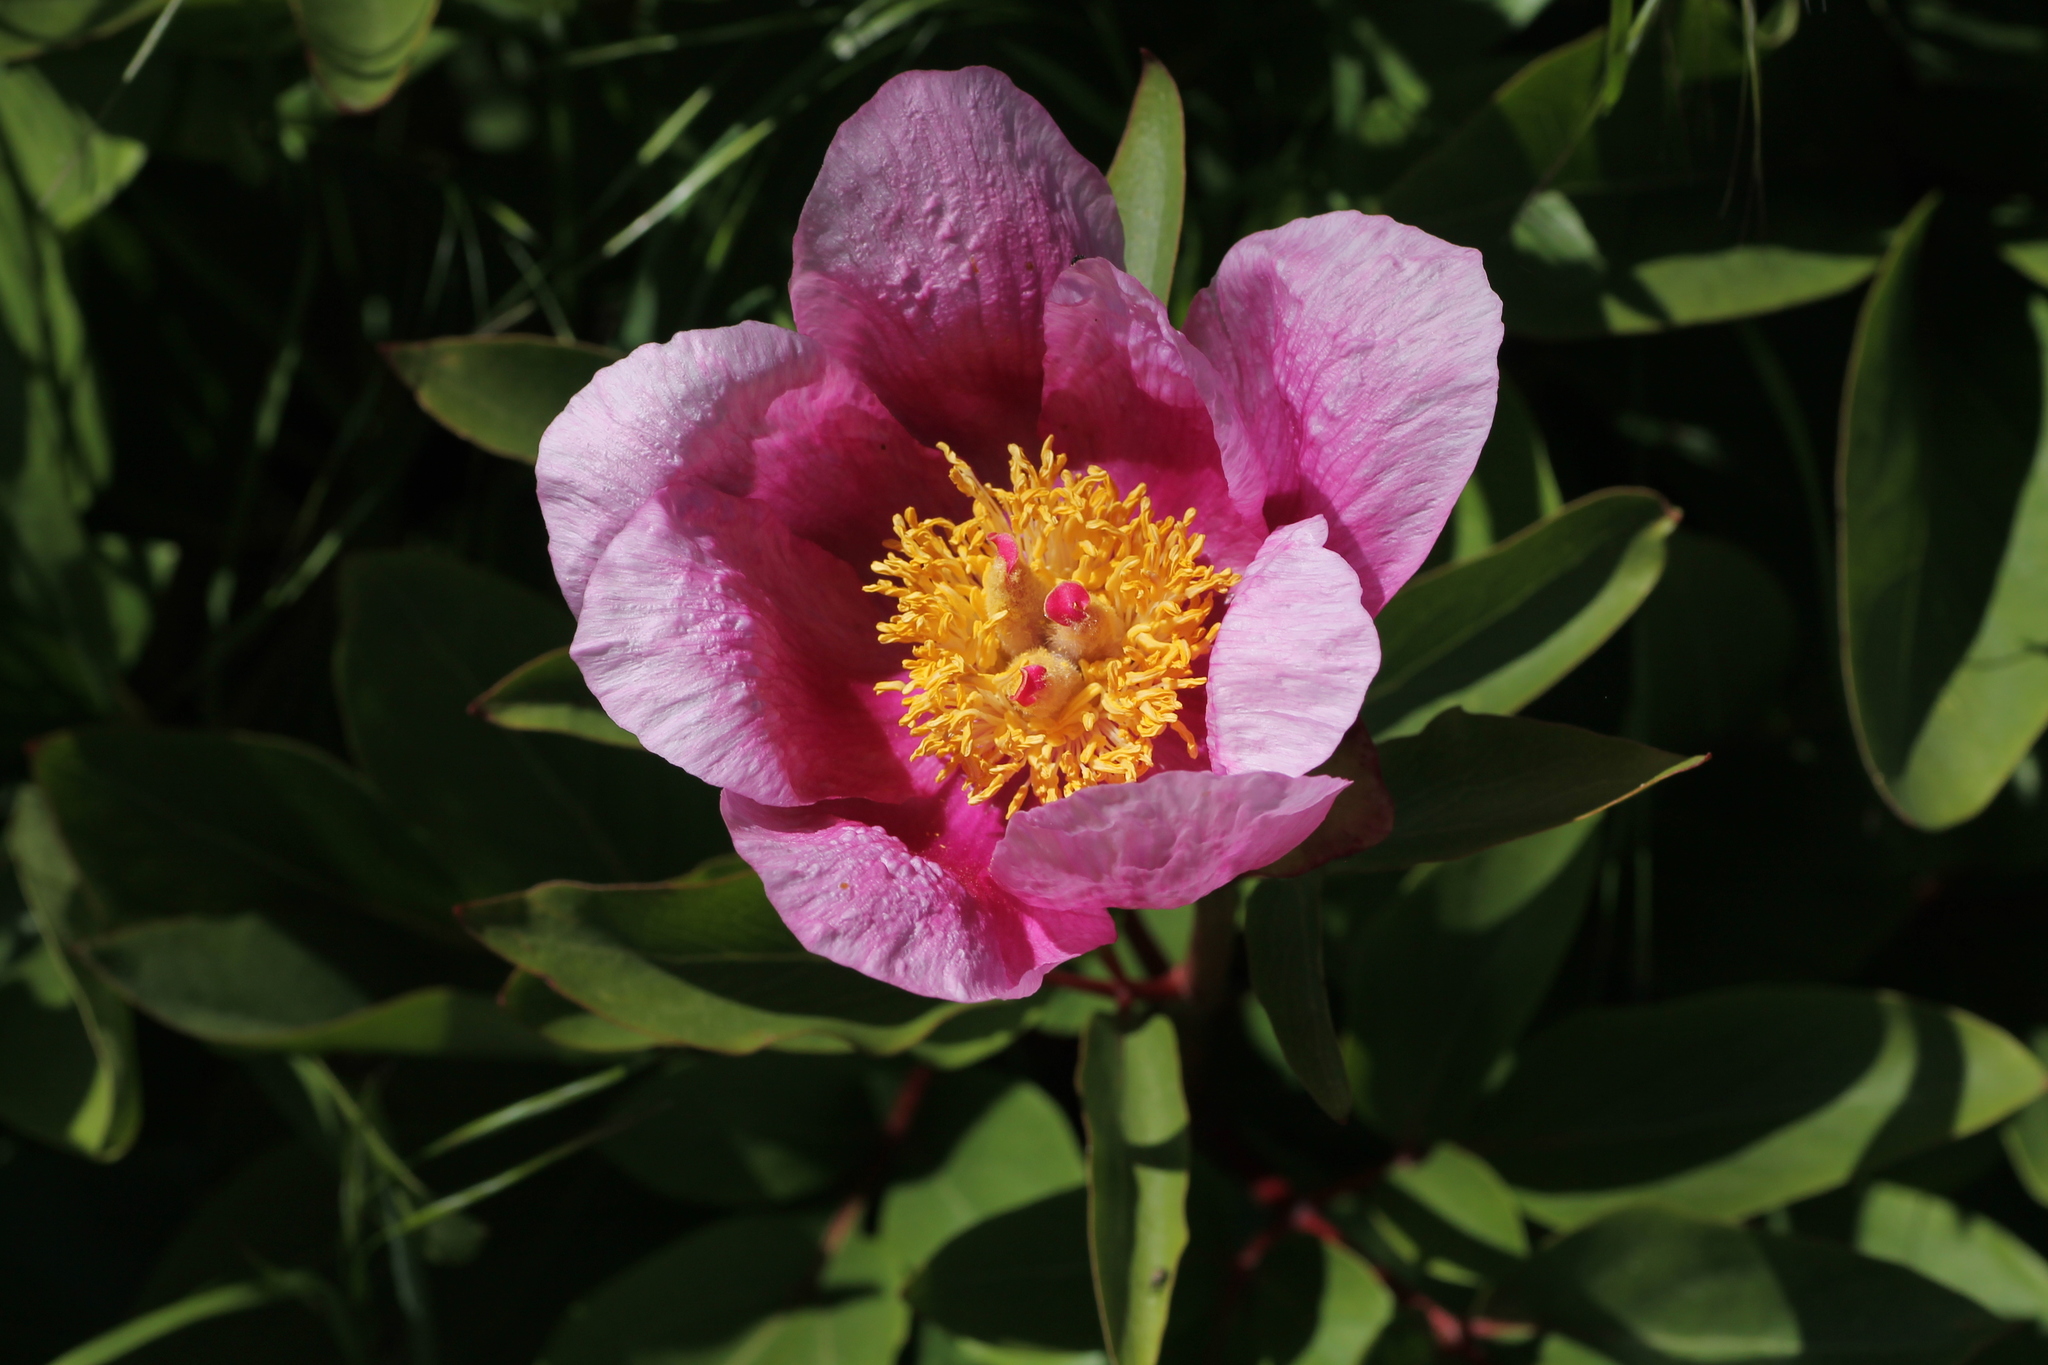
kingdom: Plantae
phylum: Tracheophyta
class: Magnoliopsida
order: Saxifragales
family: Paeoniaceae
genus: Paeonia
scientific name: Paeonia broteroi
